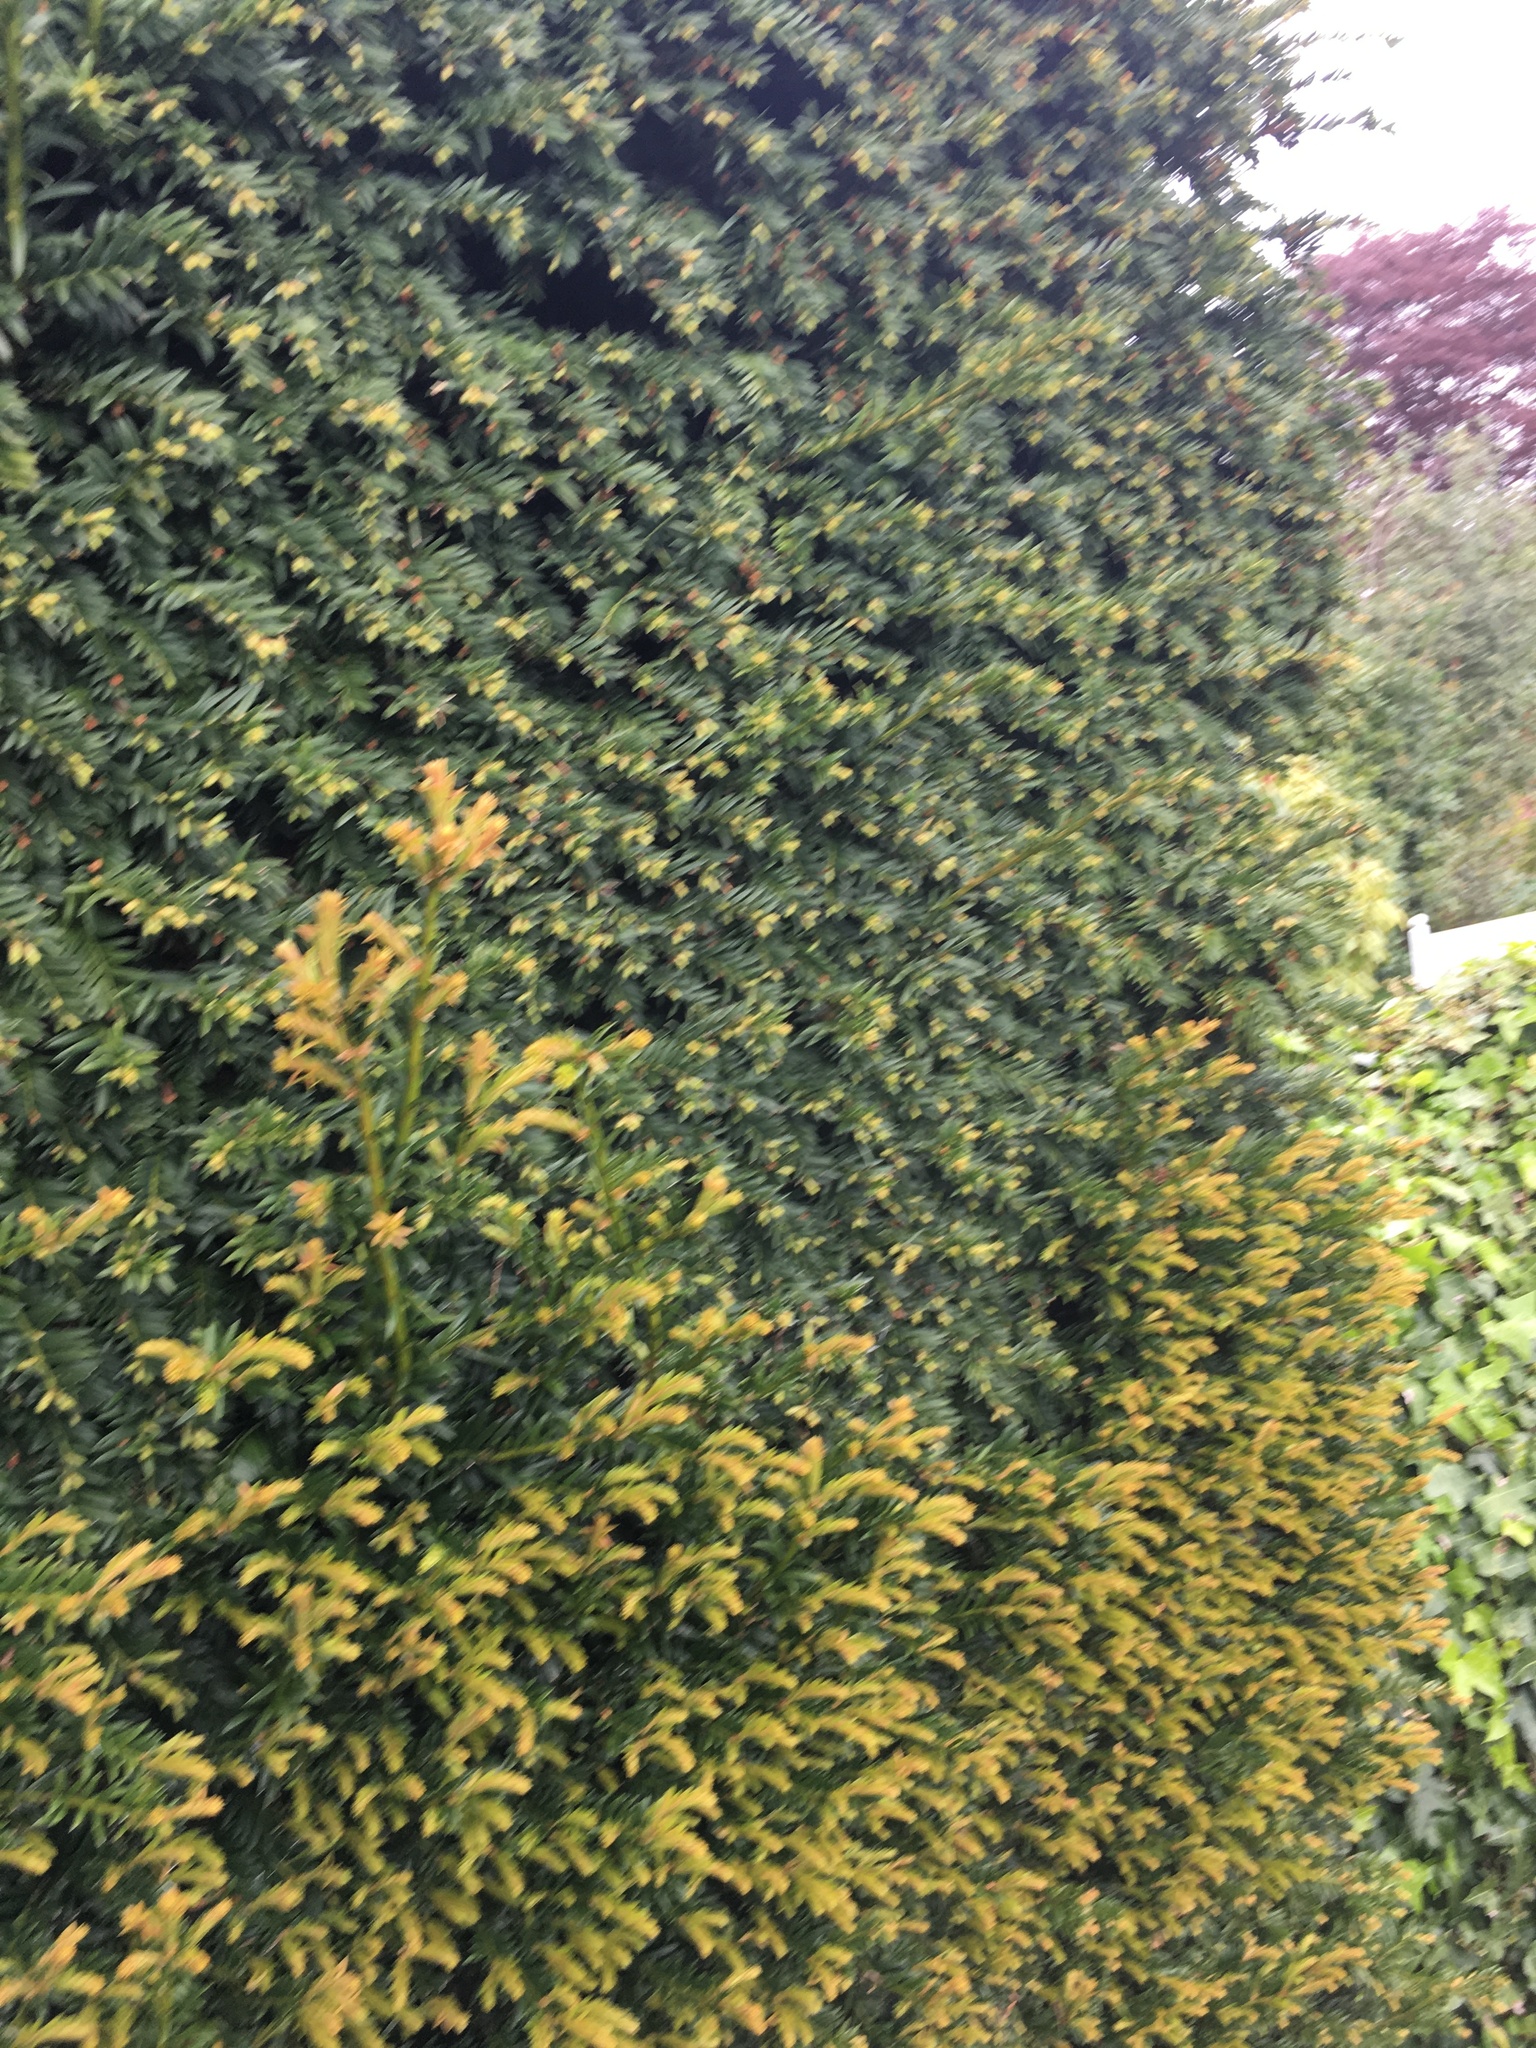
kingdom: Plantae
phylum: Tracheophyta
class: Pinopsida
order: Pinales
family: Taxaceae
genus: Taxus
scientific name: Taxus baccata
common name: Yew
